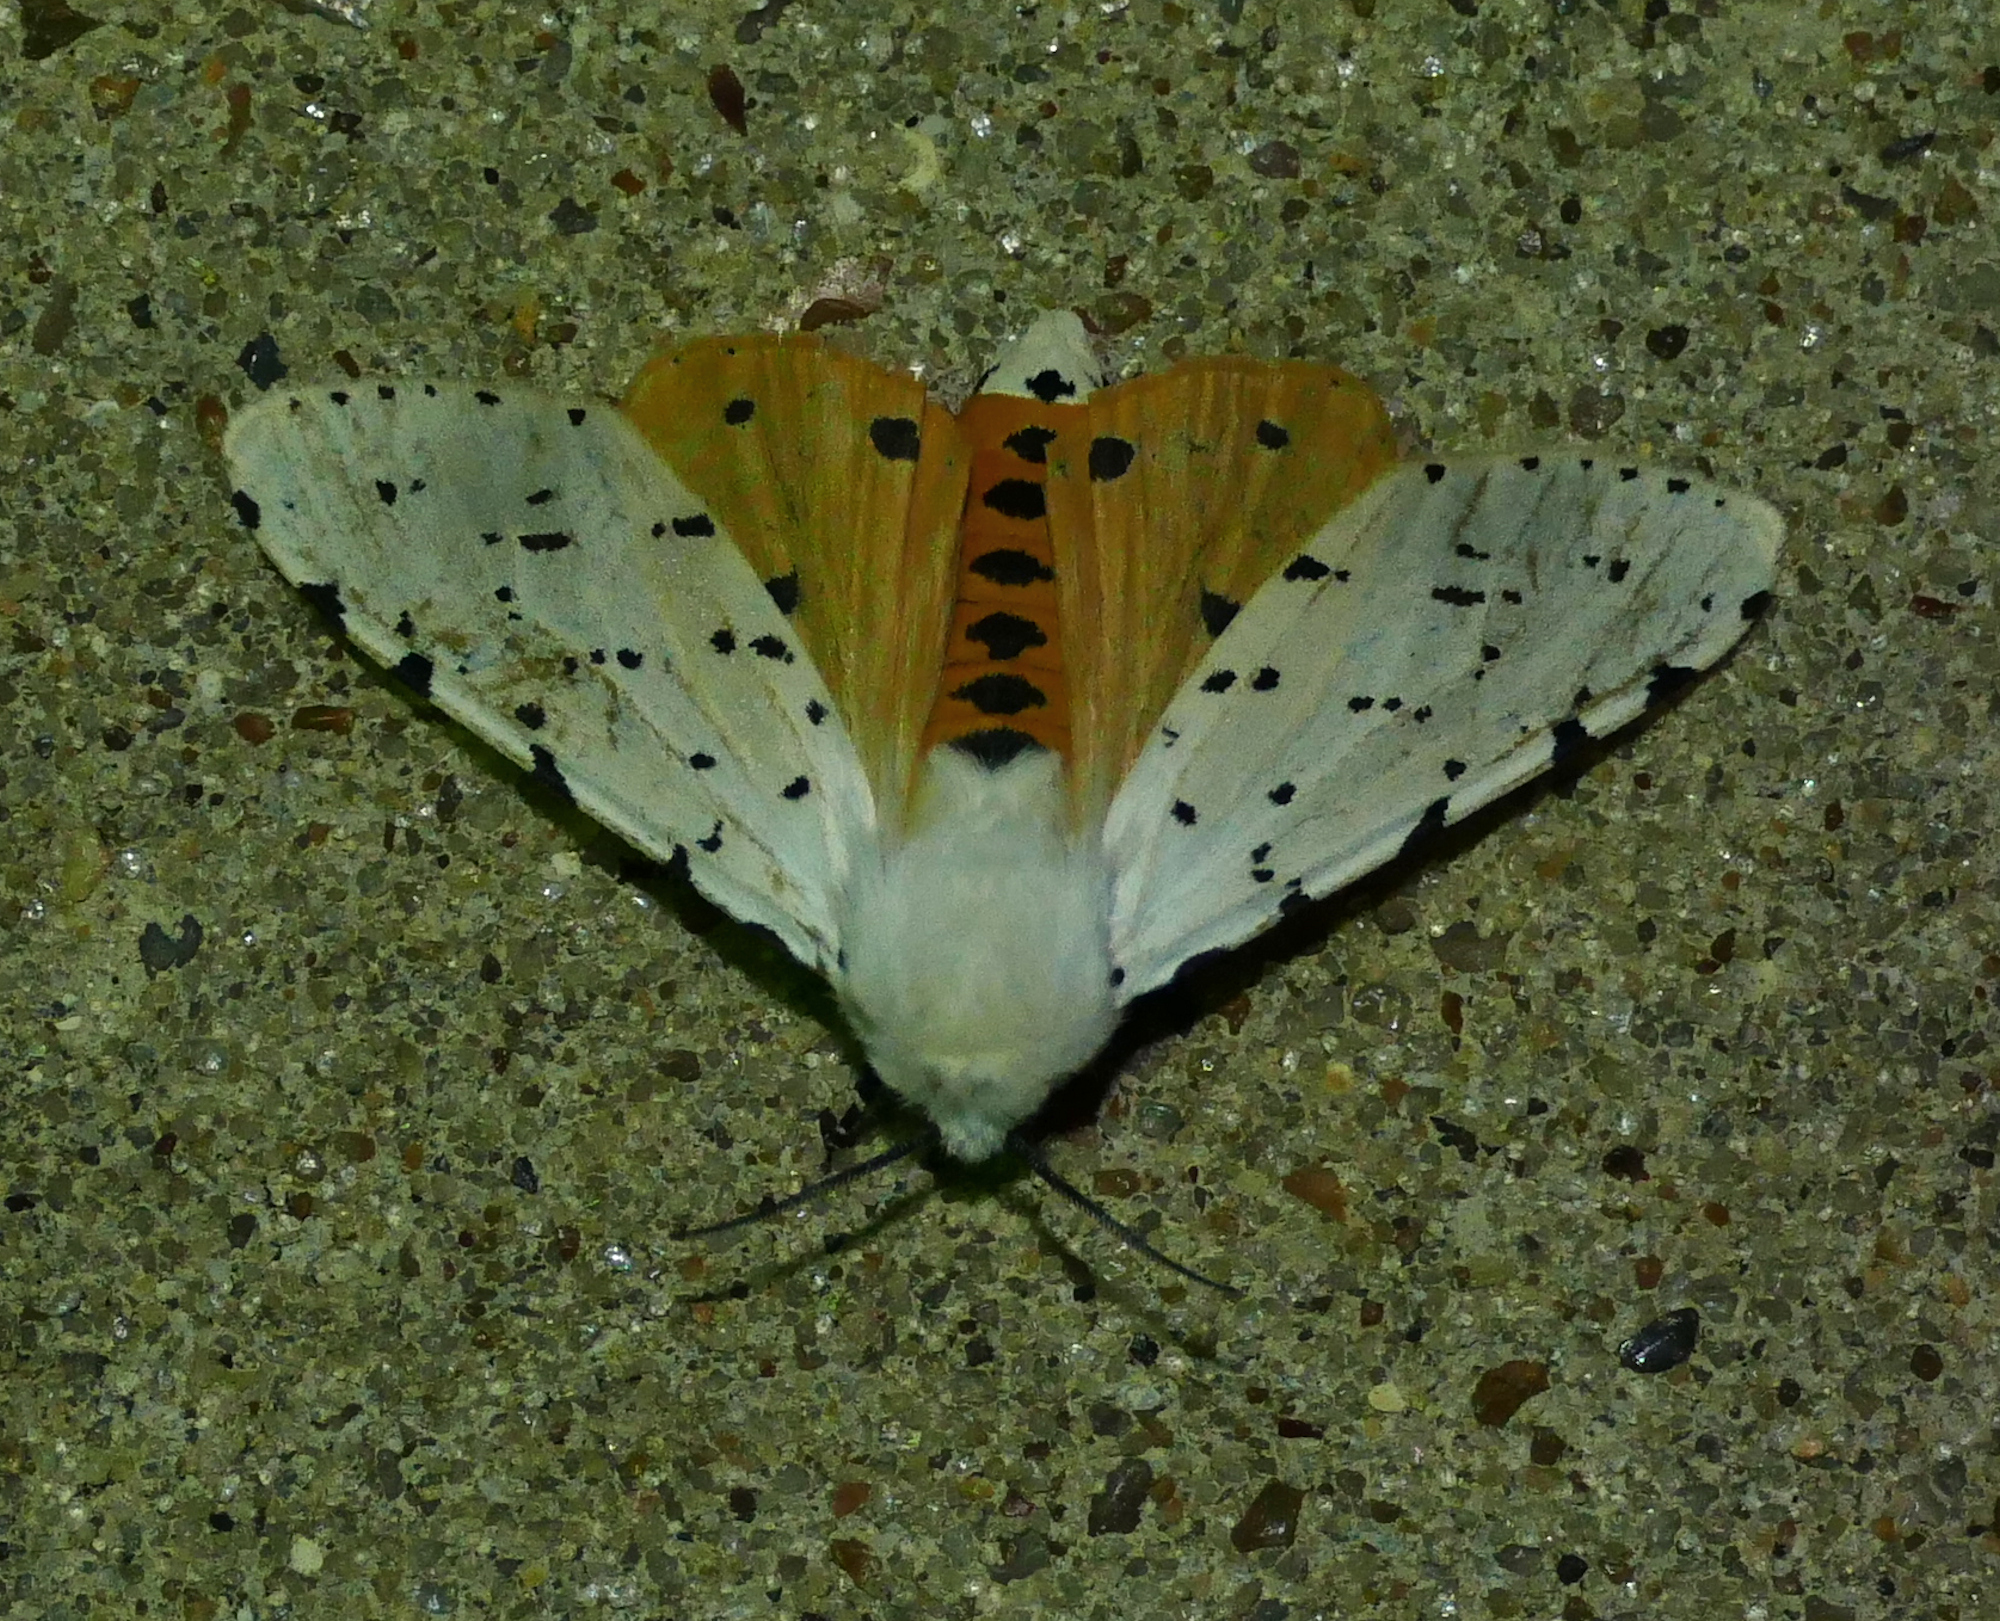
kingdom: Animalia
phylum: Arthropoda
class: Insecta
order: Lepidoptera
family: Erebidae
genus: Estigmene
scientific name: Estigmene acrea
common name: Salt marsh moth
